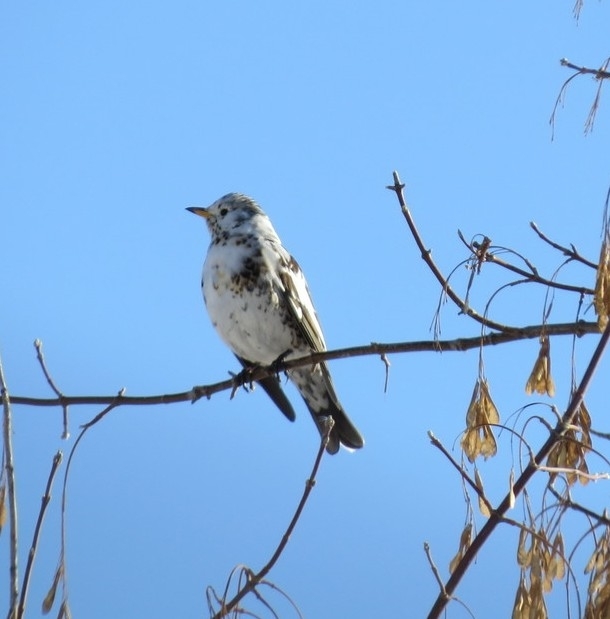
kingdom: Animalia
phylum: Chordata
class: Aves
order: Passeriformes
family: Turdidae
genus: Turdus
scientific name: Turdus pilaris
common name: Fieldfare
